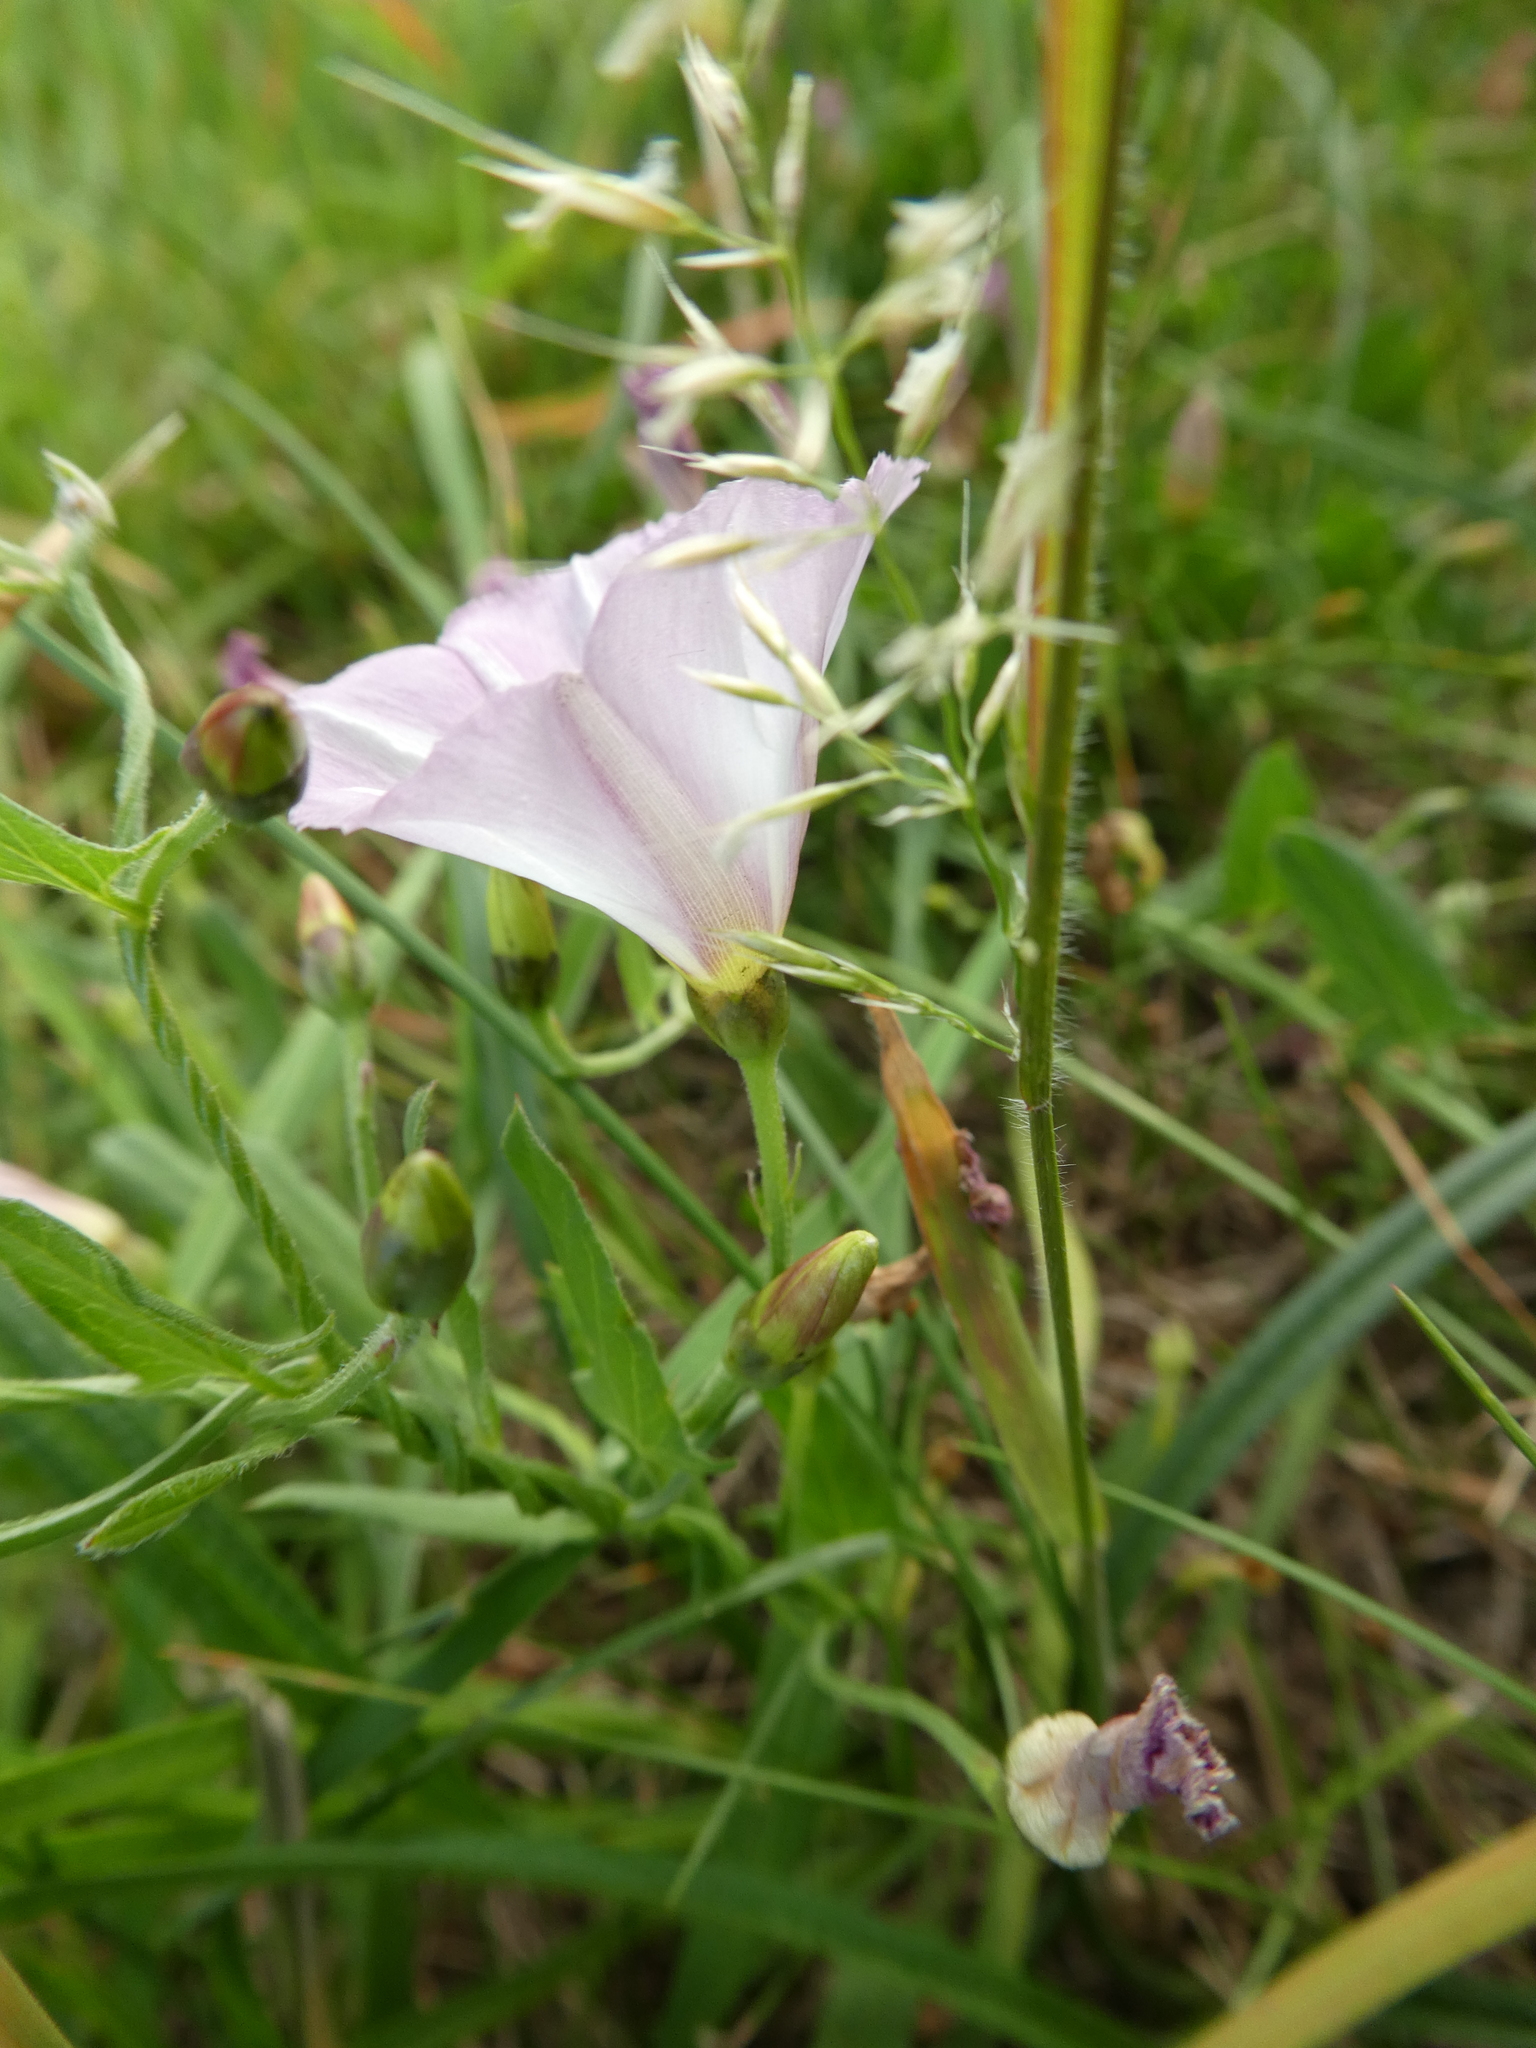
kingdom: Plantae
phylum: Tracheophyta
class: Magnoliopsida
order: Solanales
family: Convolvulaceae
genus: Convolvulus
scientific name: Convolvulus arvensis
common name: Field bindweed
